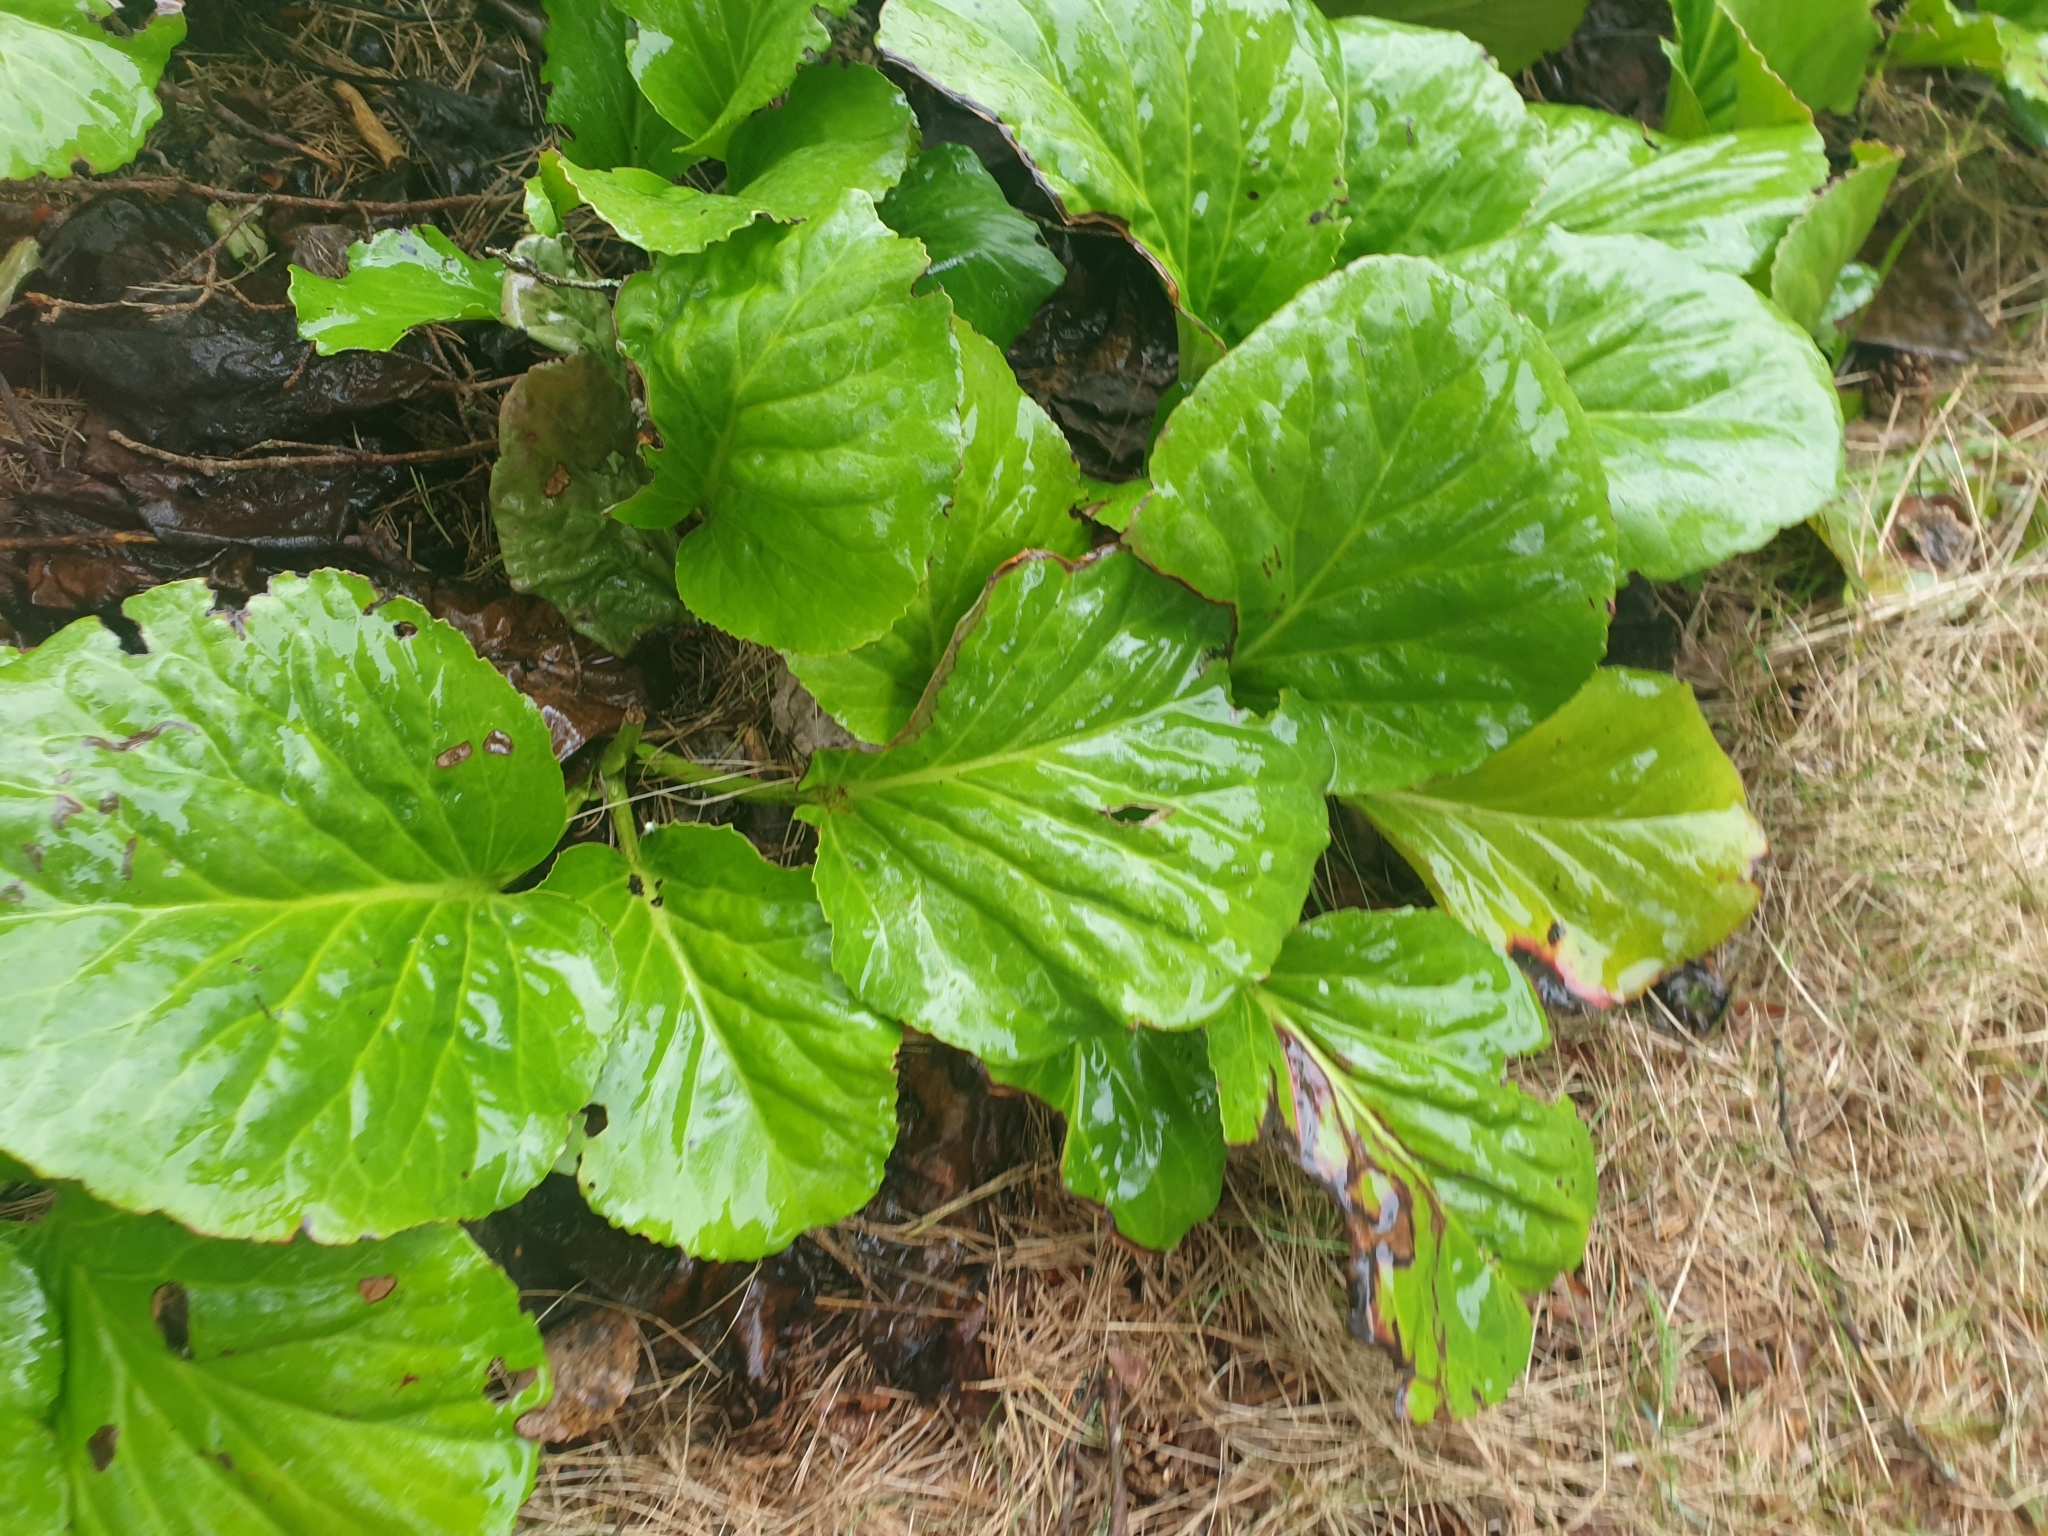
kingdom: Plantae
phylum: Tracheophyta
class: Magnoliopsida
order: Saxifragales
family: Saxifragaceae
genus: Bergenia
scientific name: Bergenia crassifolia
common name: Elephant-ears
